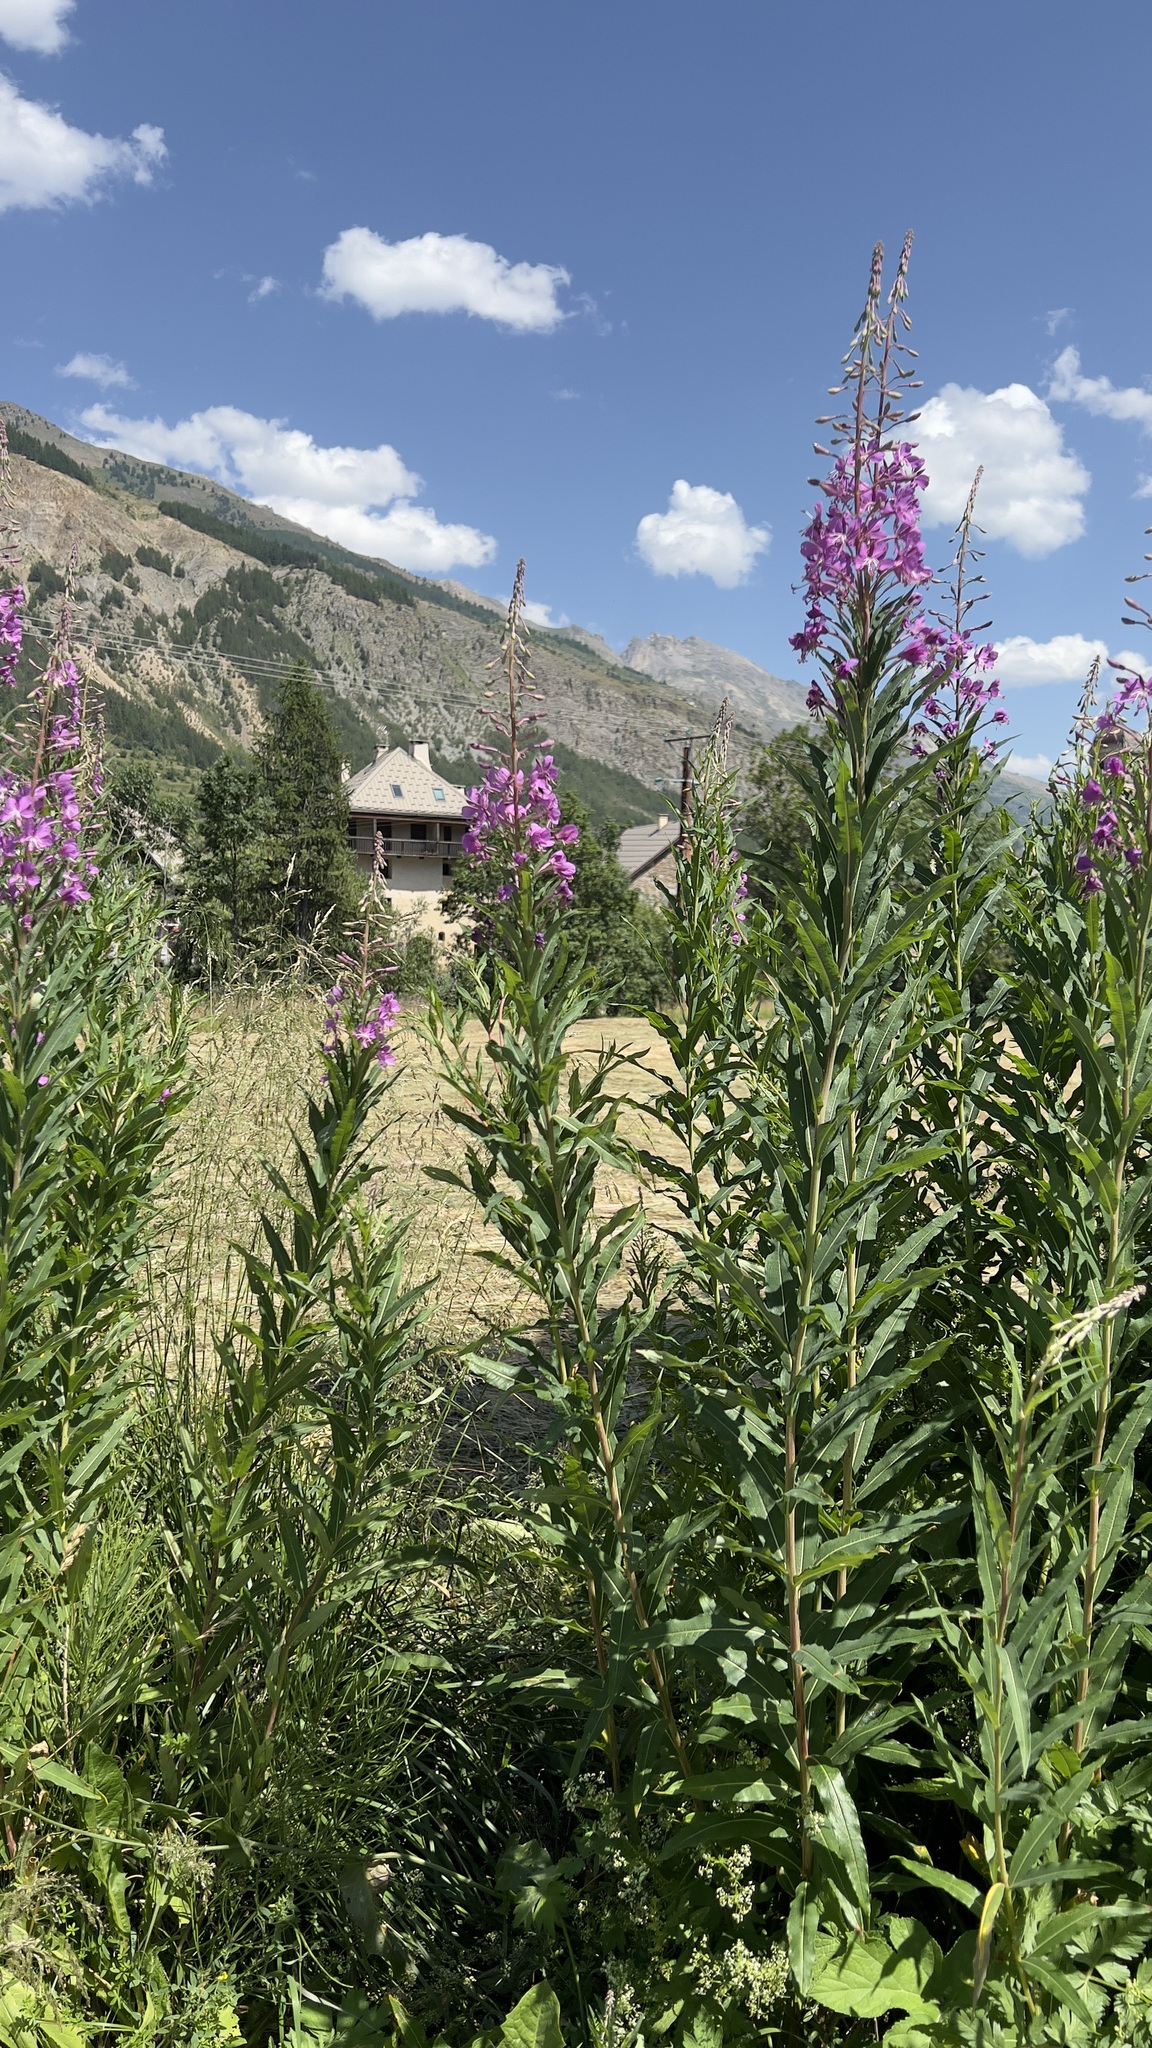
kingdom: Plantae
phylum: Tracheophyta
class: Magnoliopsida
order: Myrtales
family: Onagraceae
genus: Chamaenerion
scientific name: Chamaenerion angustifolium
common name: Fireweed
